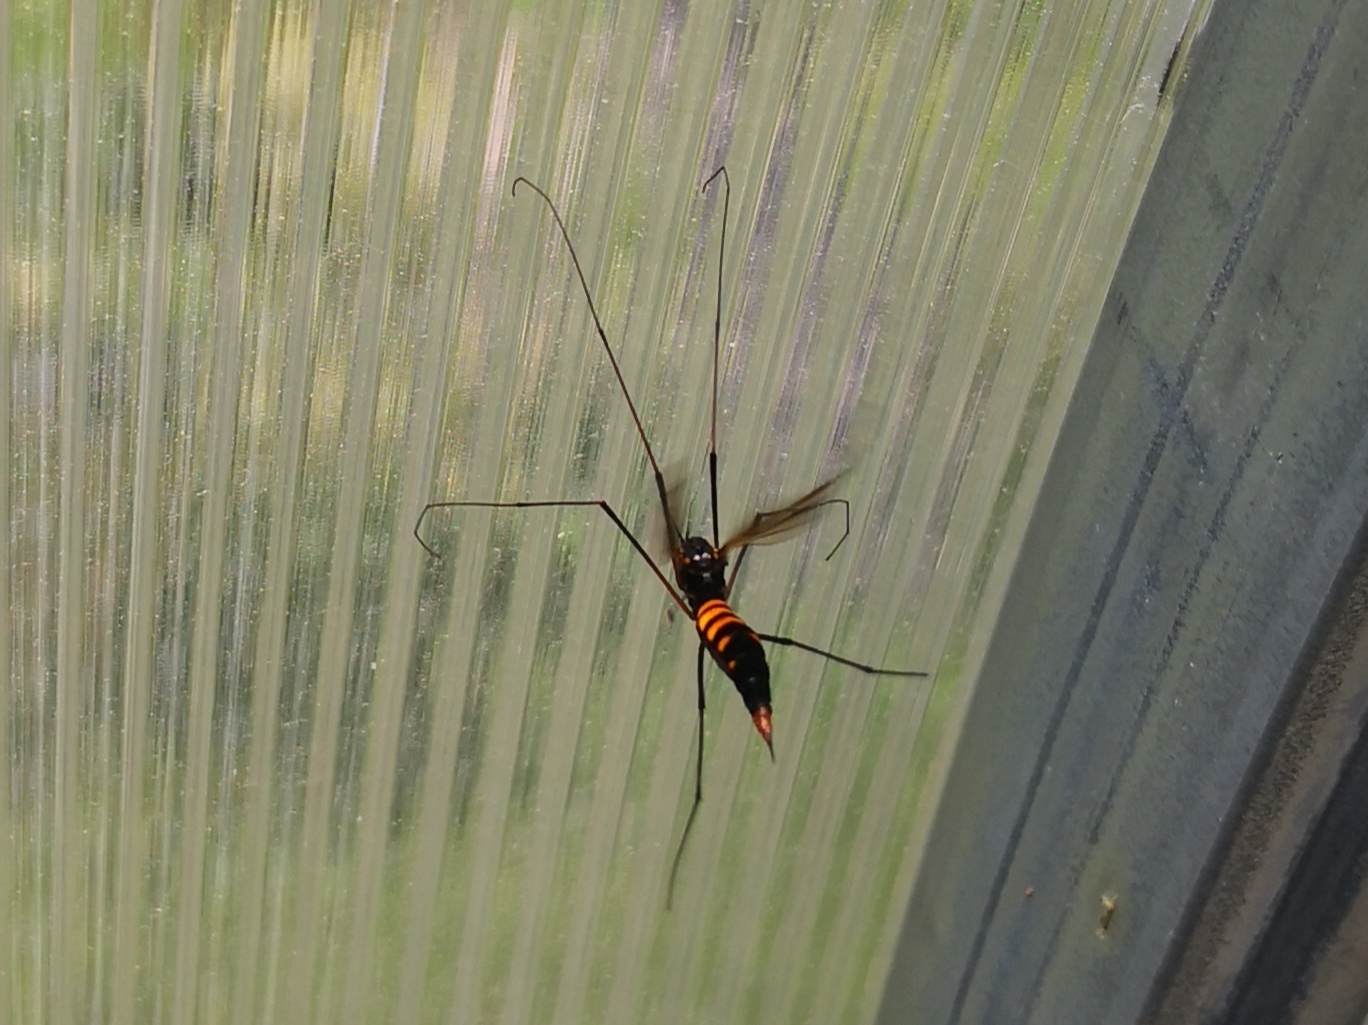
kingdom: Animalia
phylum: Arthropoda
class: Insecta
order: Diptera
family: Tipulidae
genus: Nephrotoma
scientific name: Nephrotoma crocata
